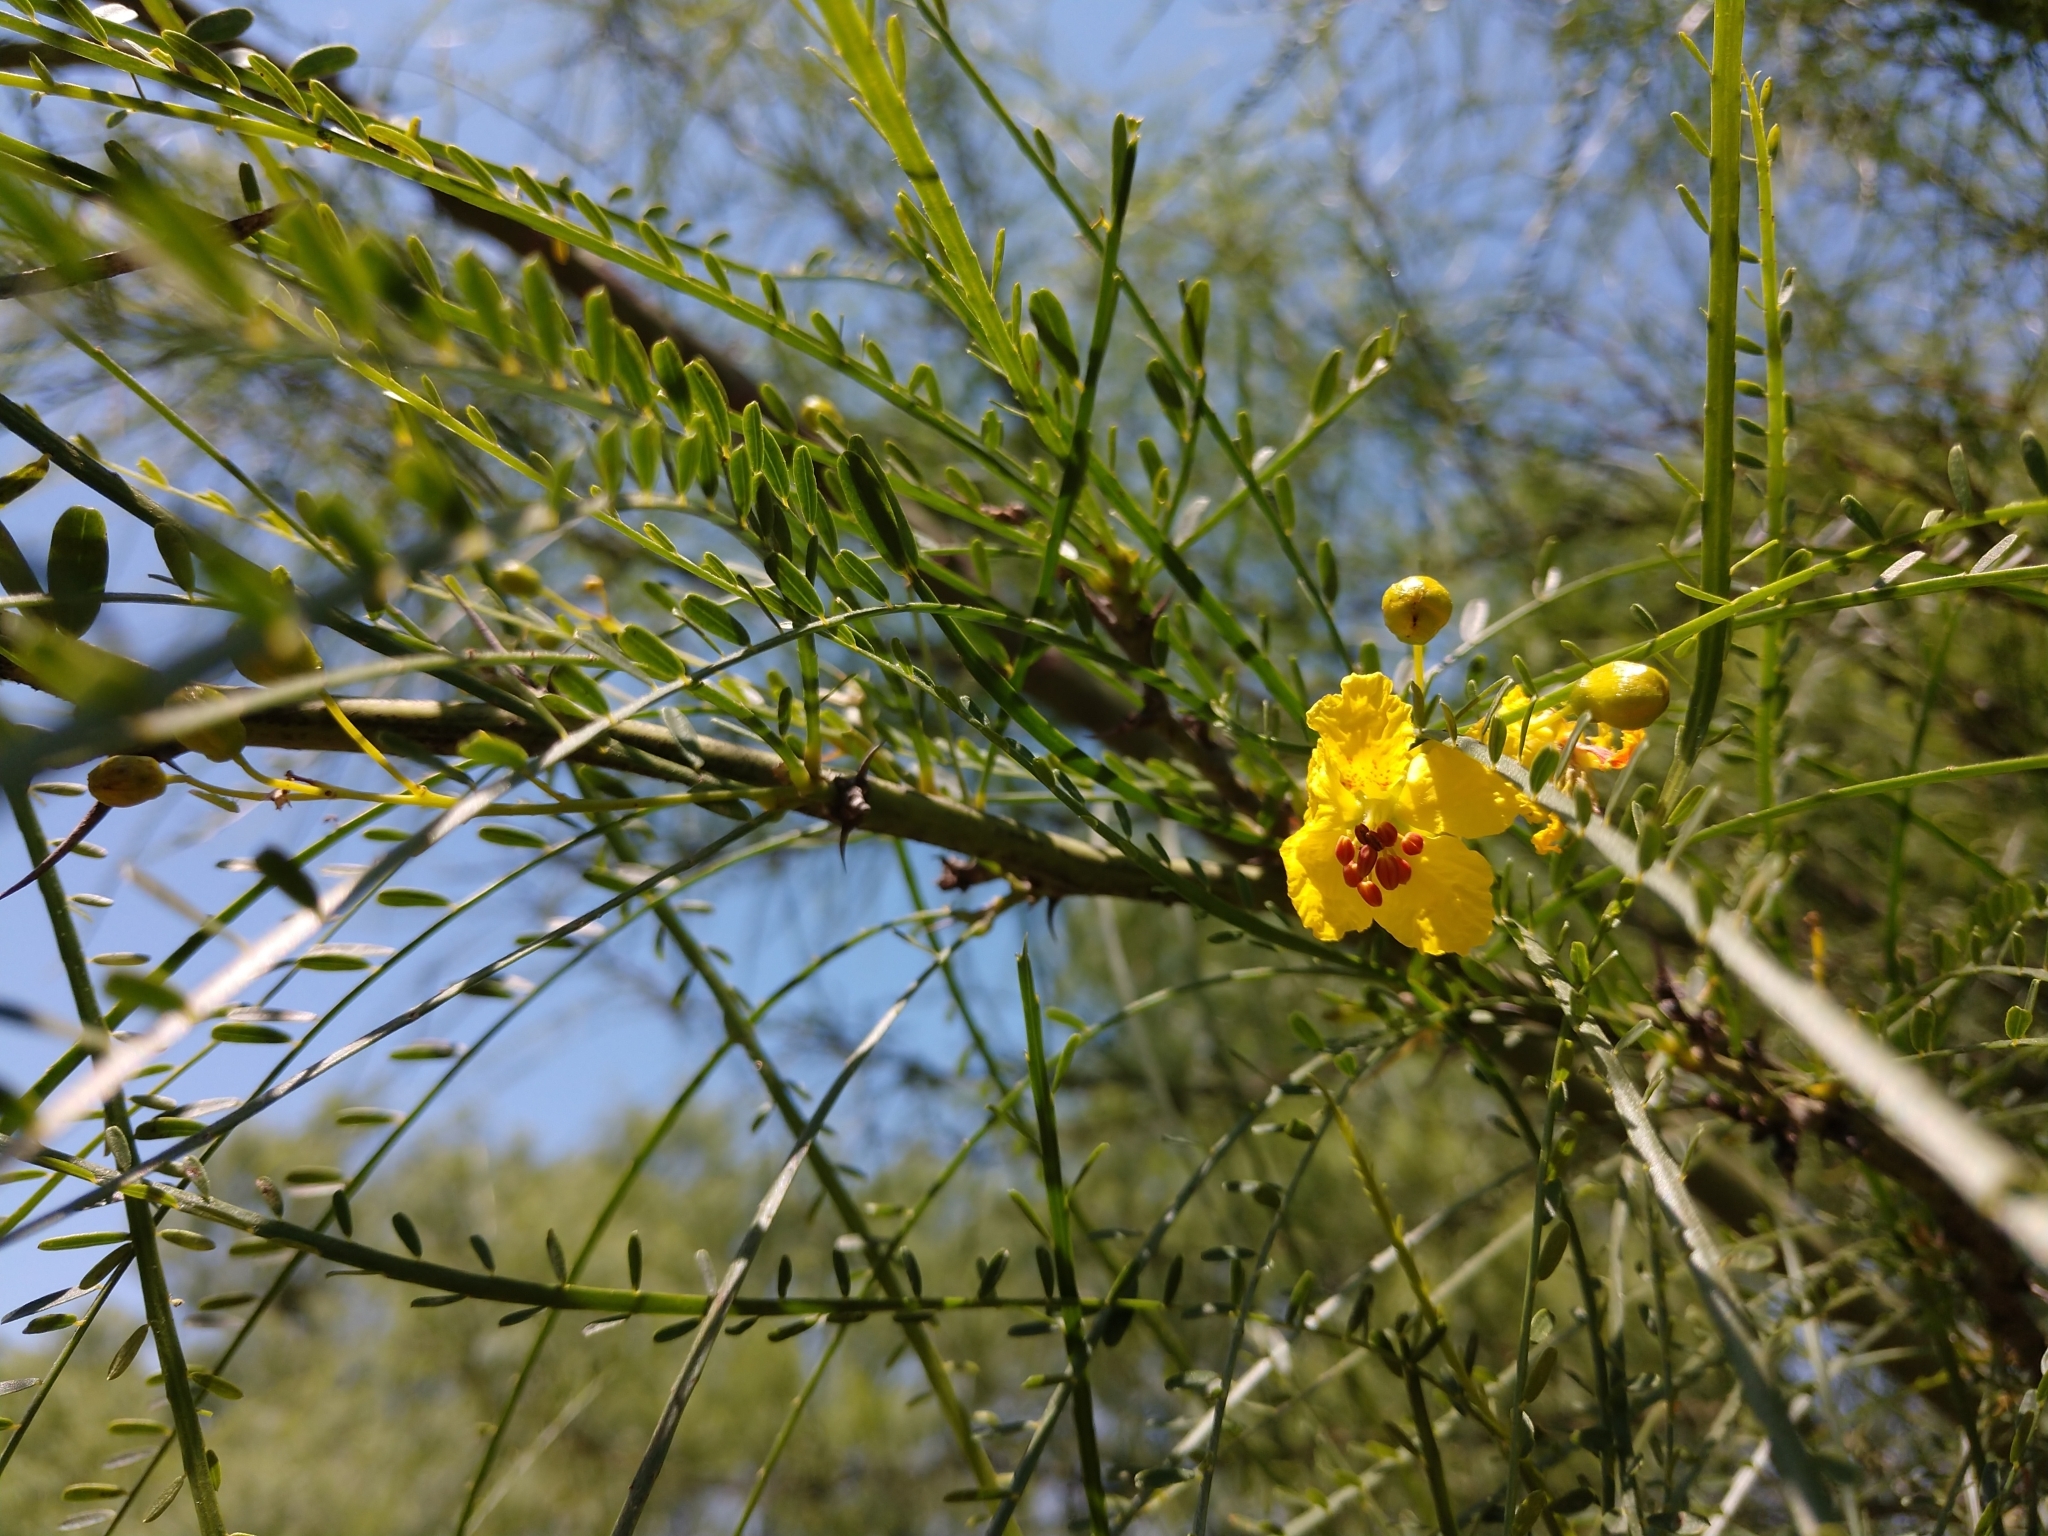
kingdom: Plantae
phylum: Tracheophyta
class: Magnoliopsida
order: Fabales
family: Fabaceae
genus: Parkinsonia
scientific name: Parkinsonia aculeata
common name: Jerusalem thorn
